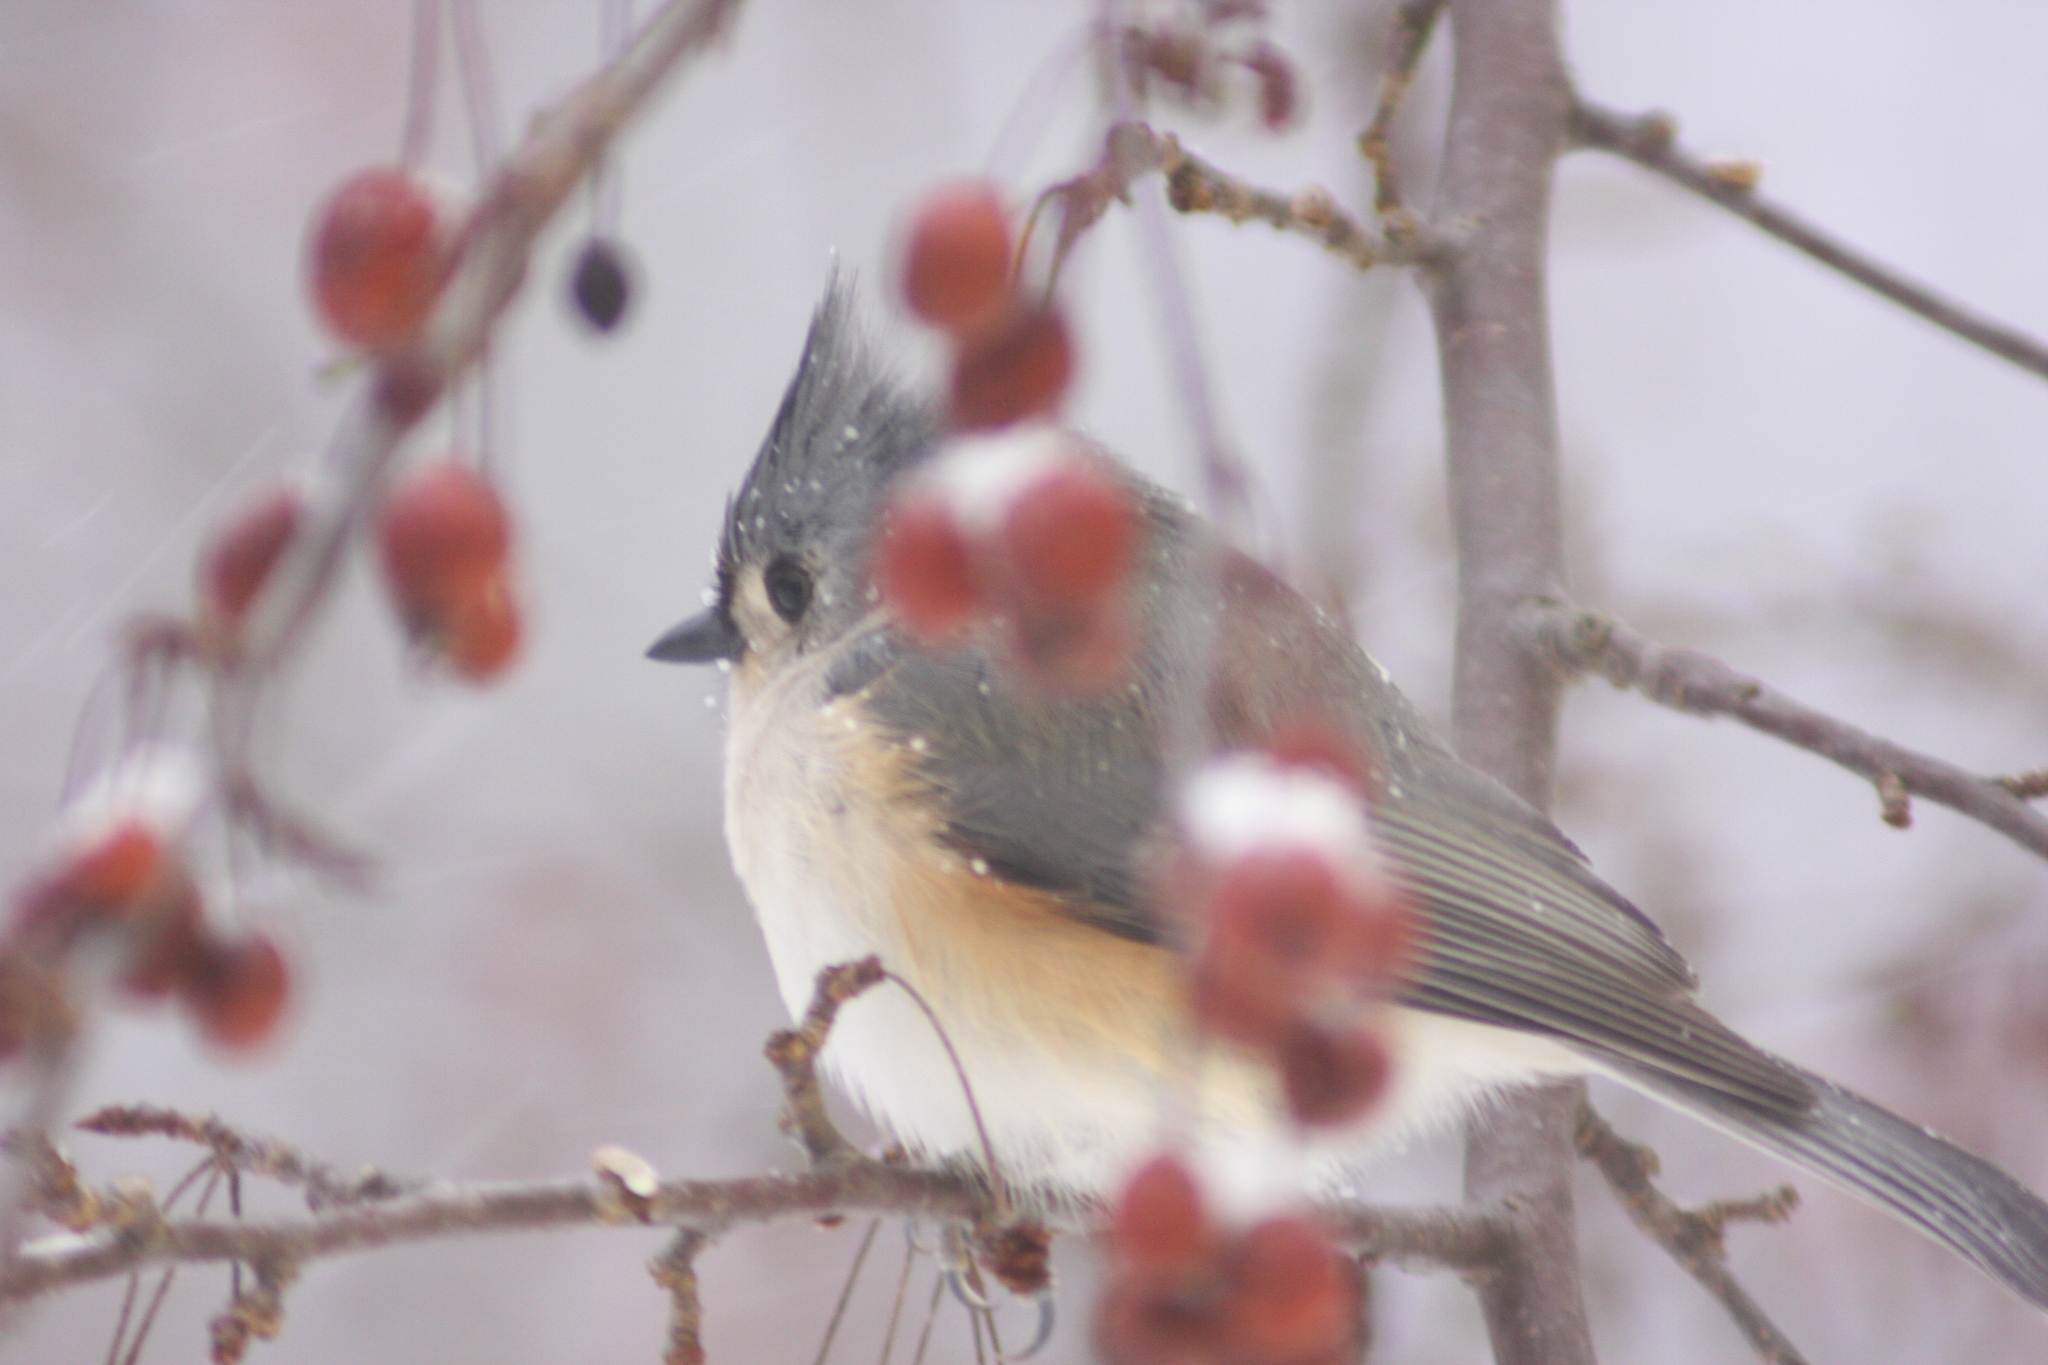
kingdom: Animalia
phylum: Chordata
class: Aves
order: Passeriformes
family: Paridae
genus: Baeolophus
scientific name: Baeolophus bicolor
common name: Tufted titmouse
